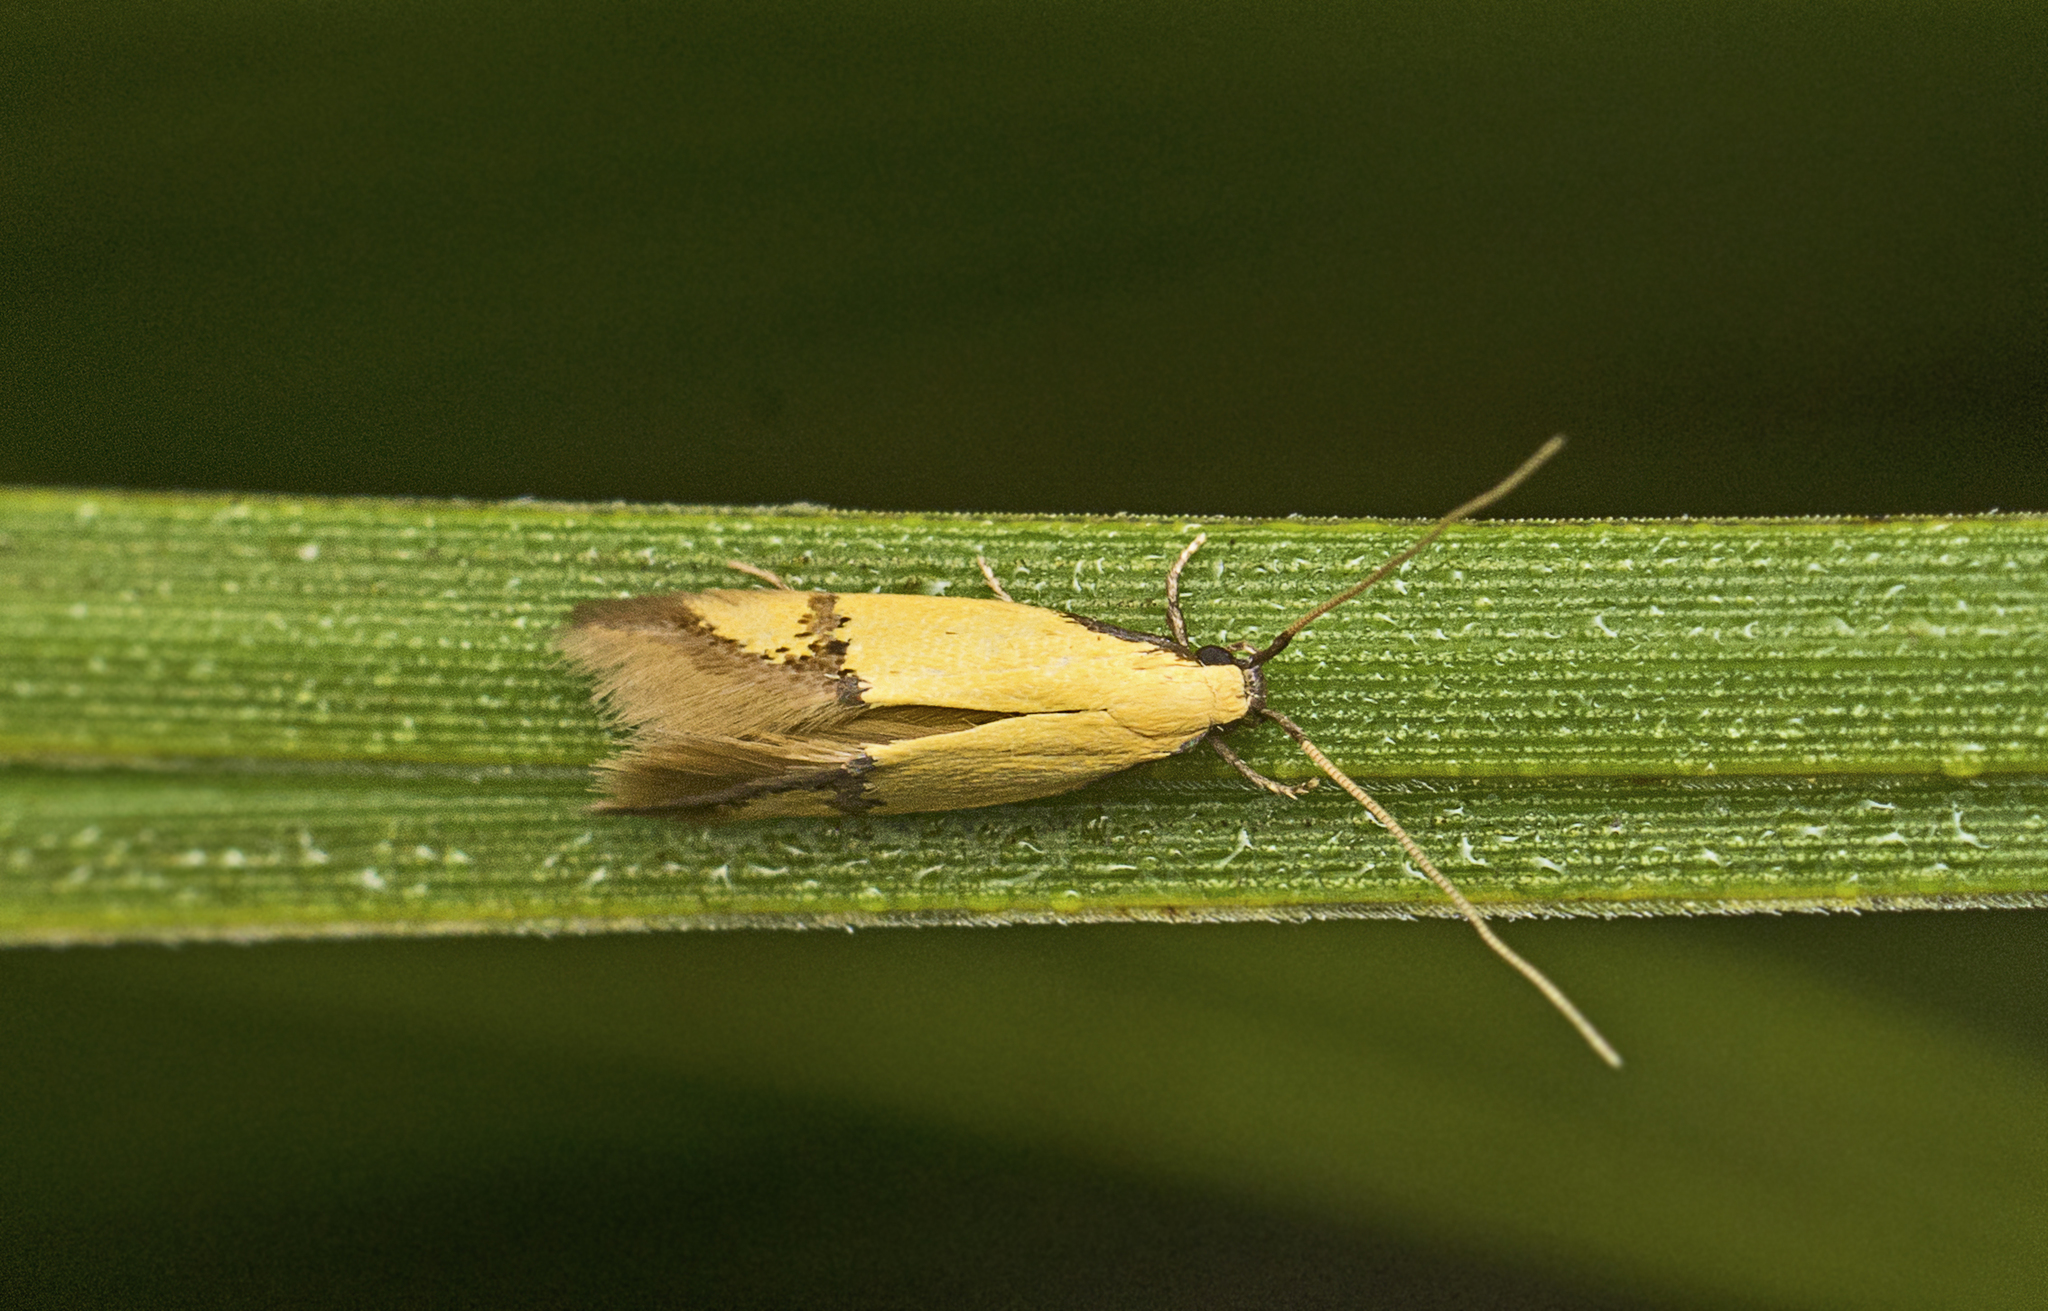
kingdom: Animalia
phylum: Arthropoda
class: Insecta
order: Lepidoptera
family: Tineidae
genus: Opogona
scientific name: Opogona stereodyta
